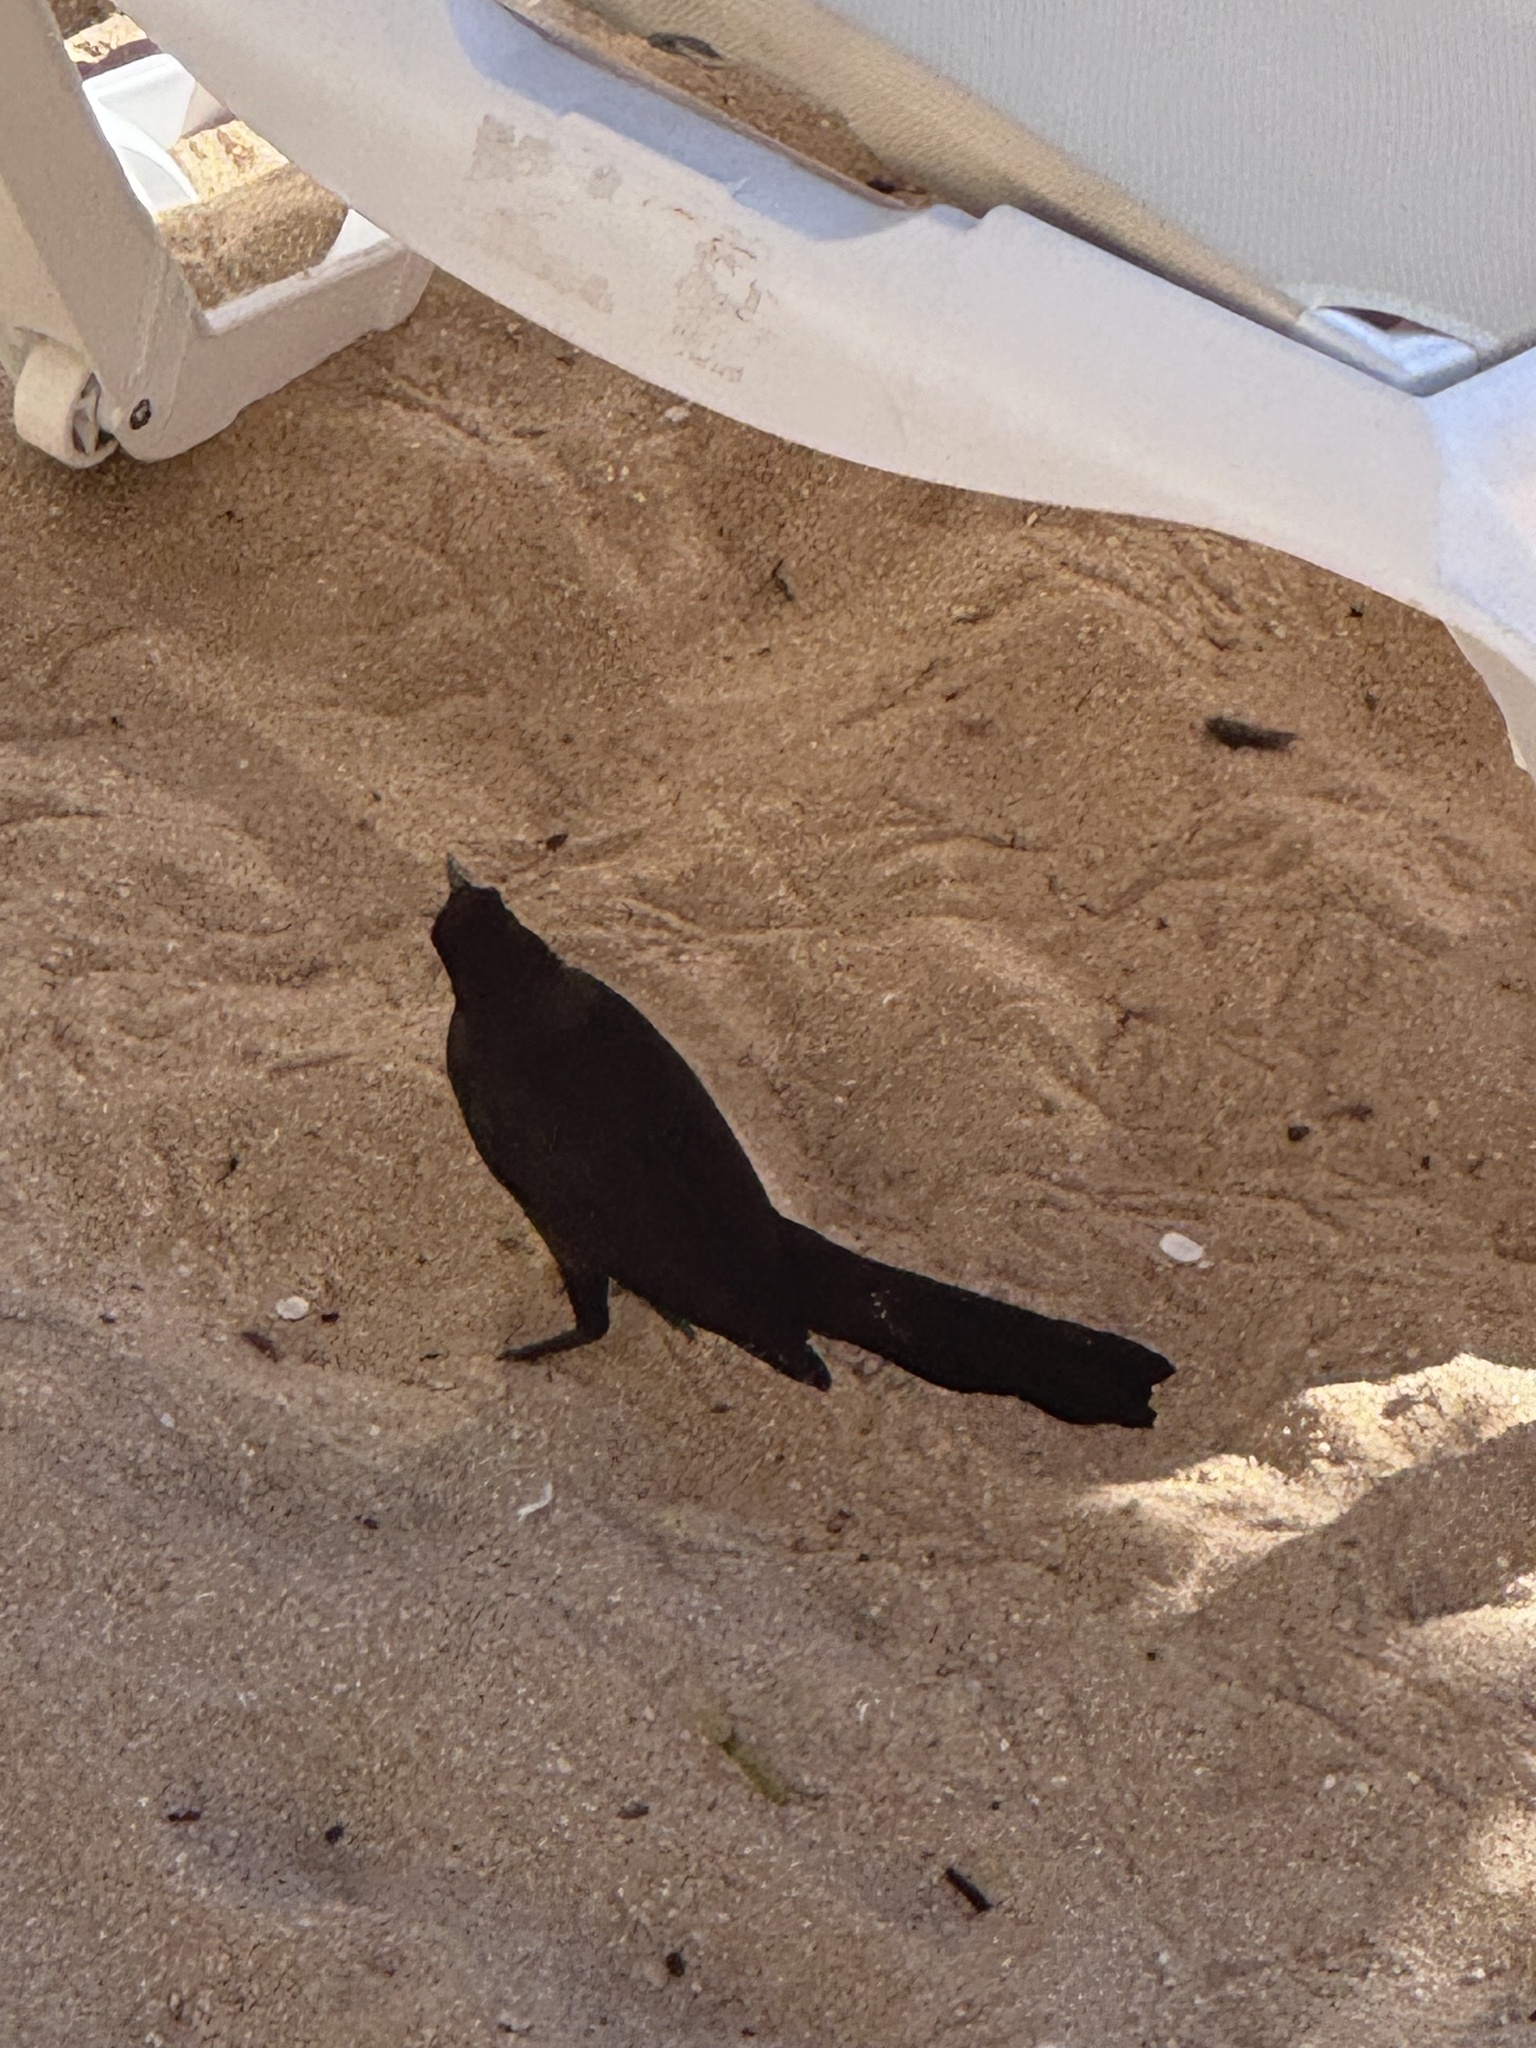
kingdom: Animalia
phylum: Chordata
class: Aves
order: Passeriformes
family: Icteridae
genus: Quiscalus
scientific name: Quiscalus mexicanus
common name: Great-tailed grackle
